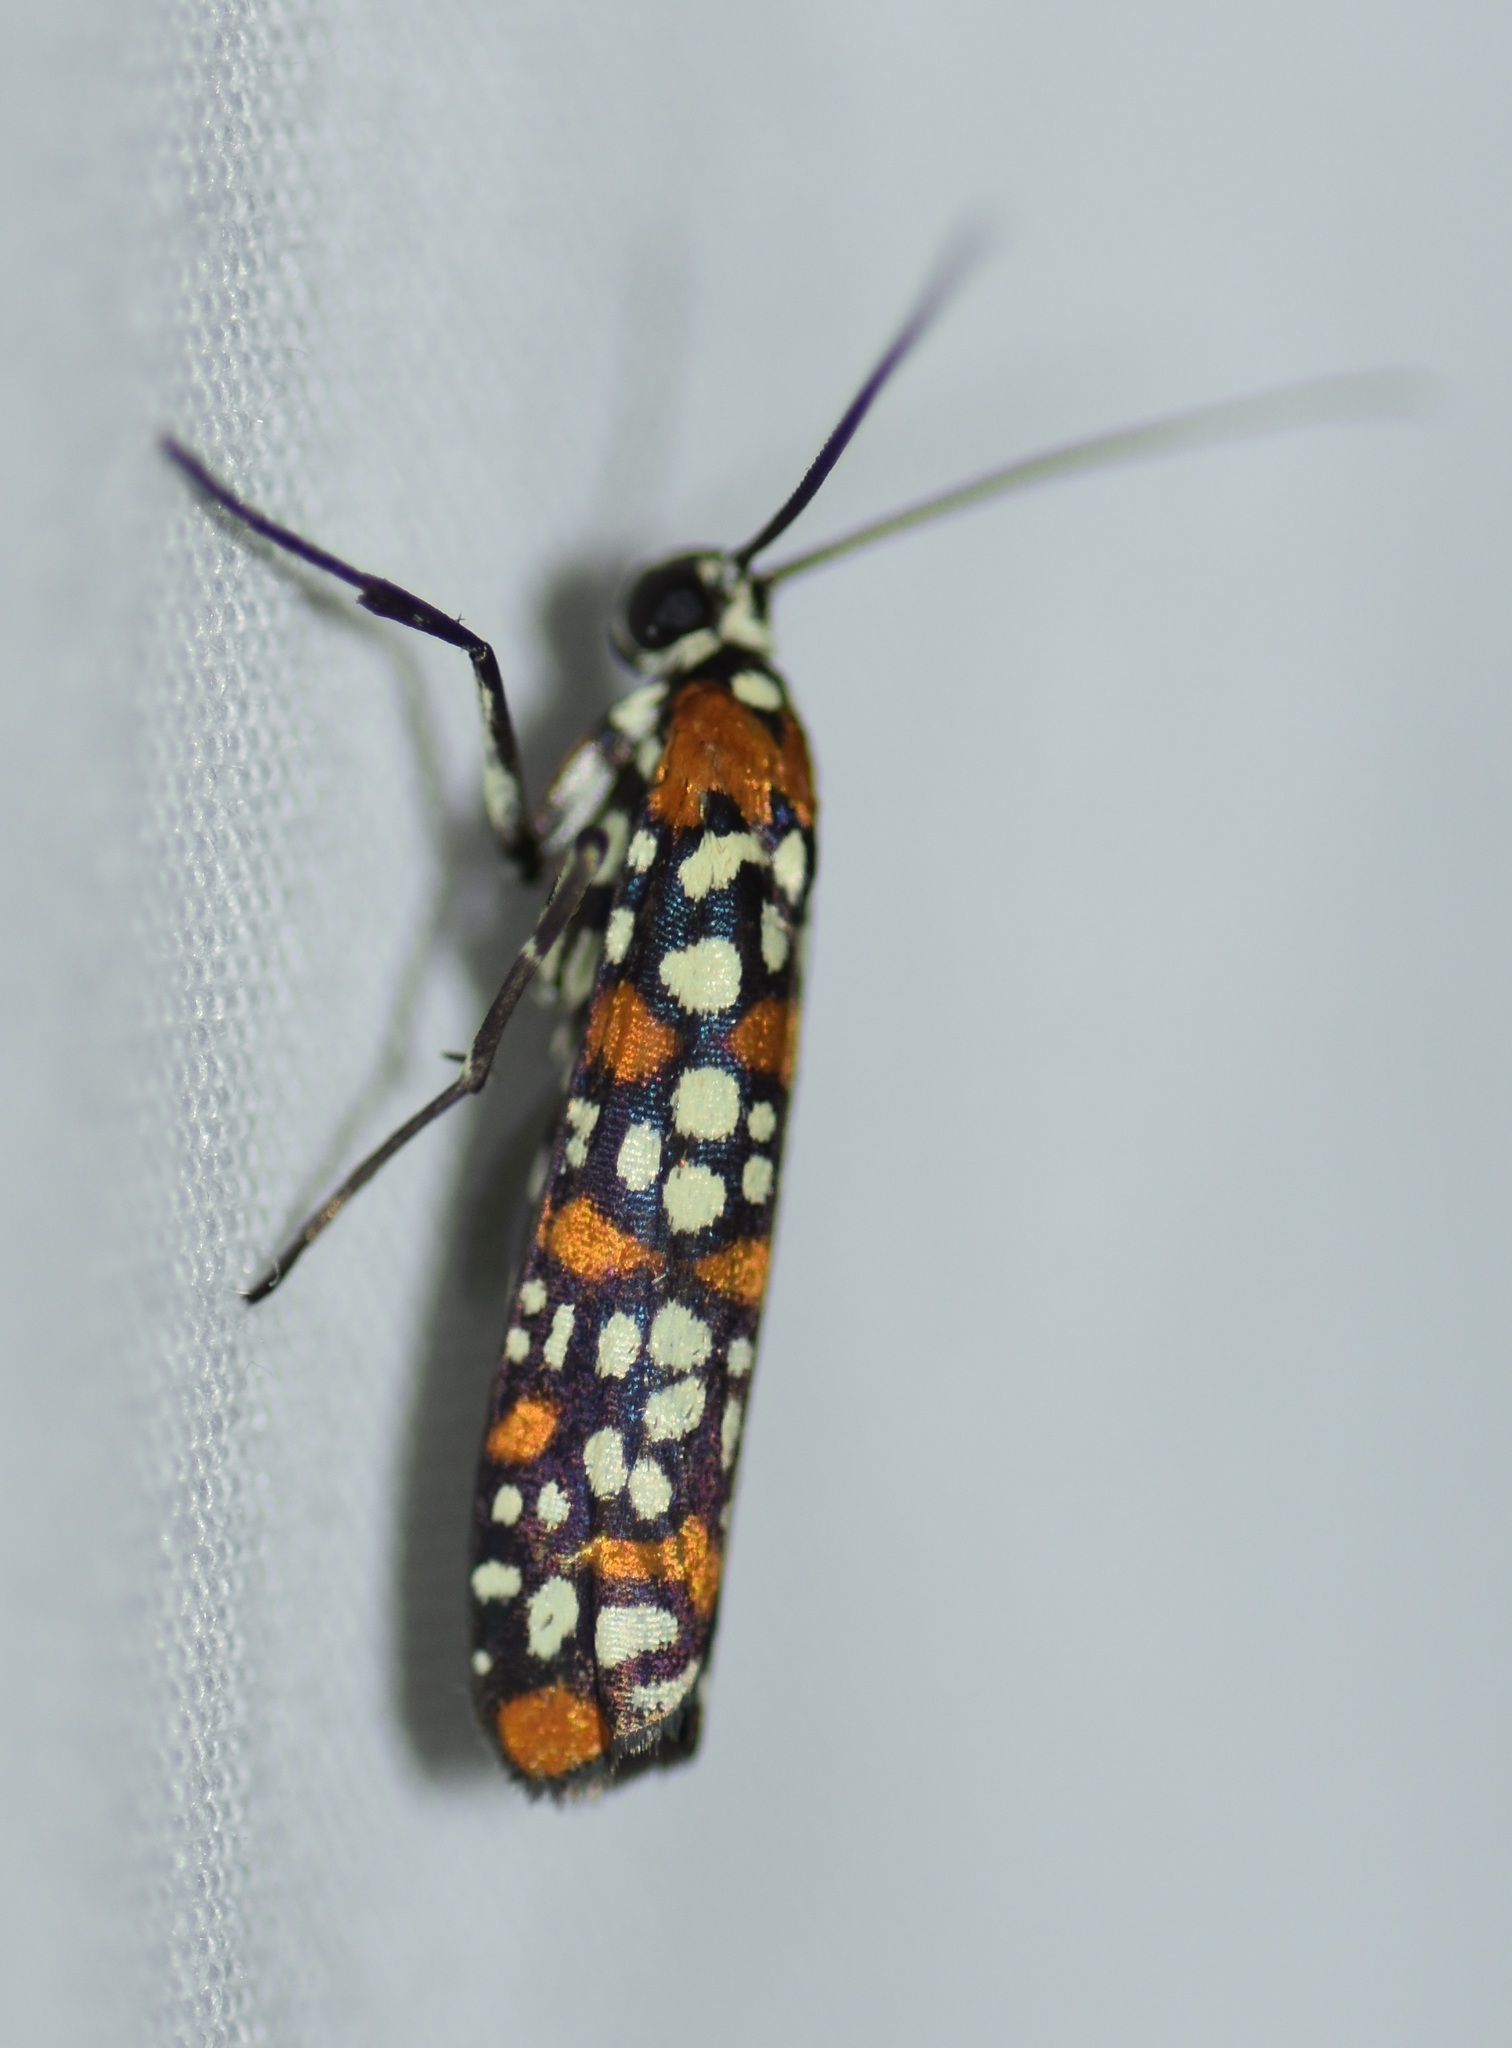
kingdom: Animalia
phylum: Arthropoda
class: Insecta
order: Lepidoptera
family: Attevidae
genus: Atteva
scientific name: Atteva punctella
